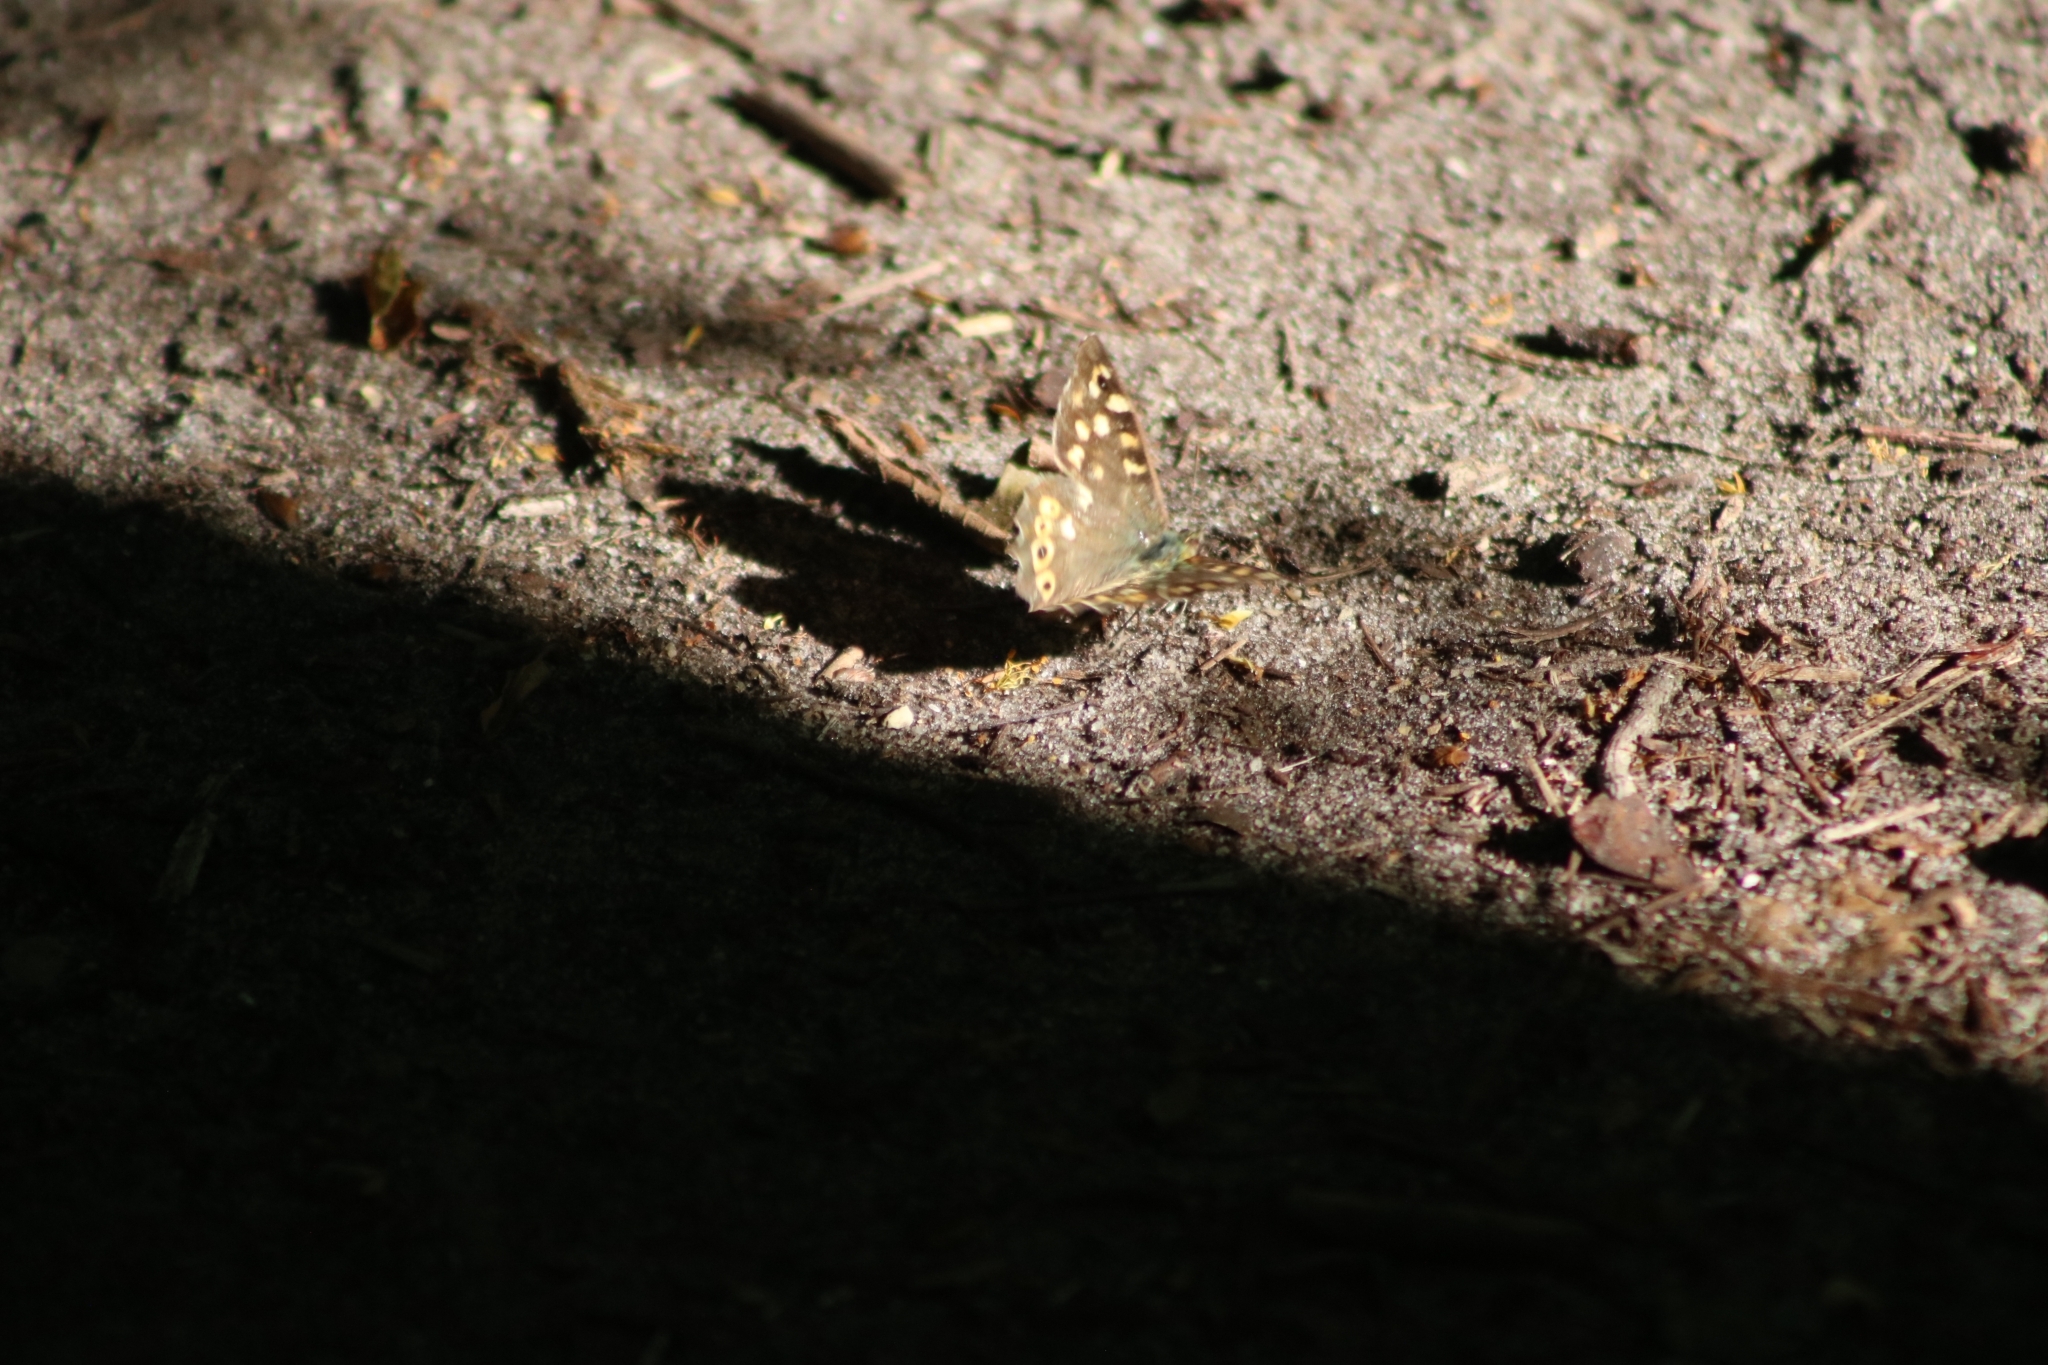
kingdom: Animalia
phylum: Arthropoda
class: Insecta
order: Lepidoptera
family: Nymphalidae
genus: Pararge
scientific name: Pararge aegeria
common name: Speckled wood
